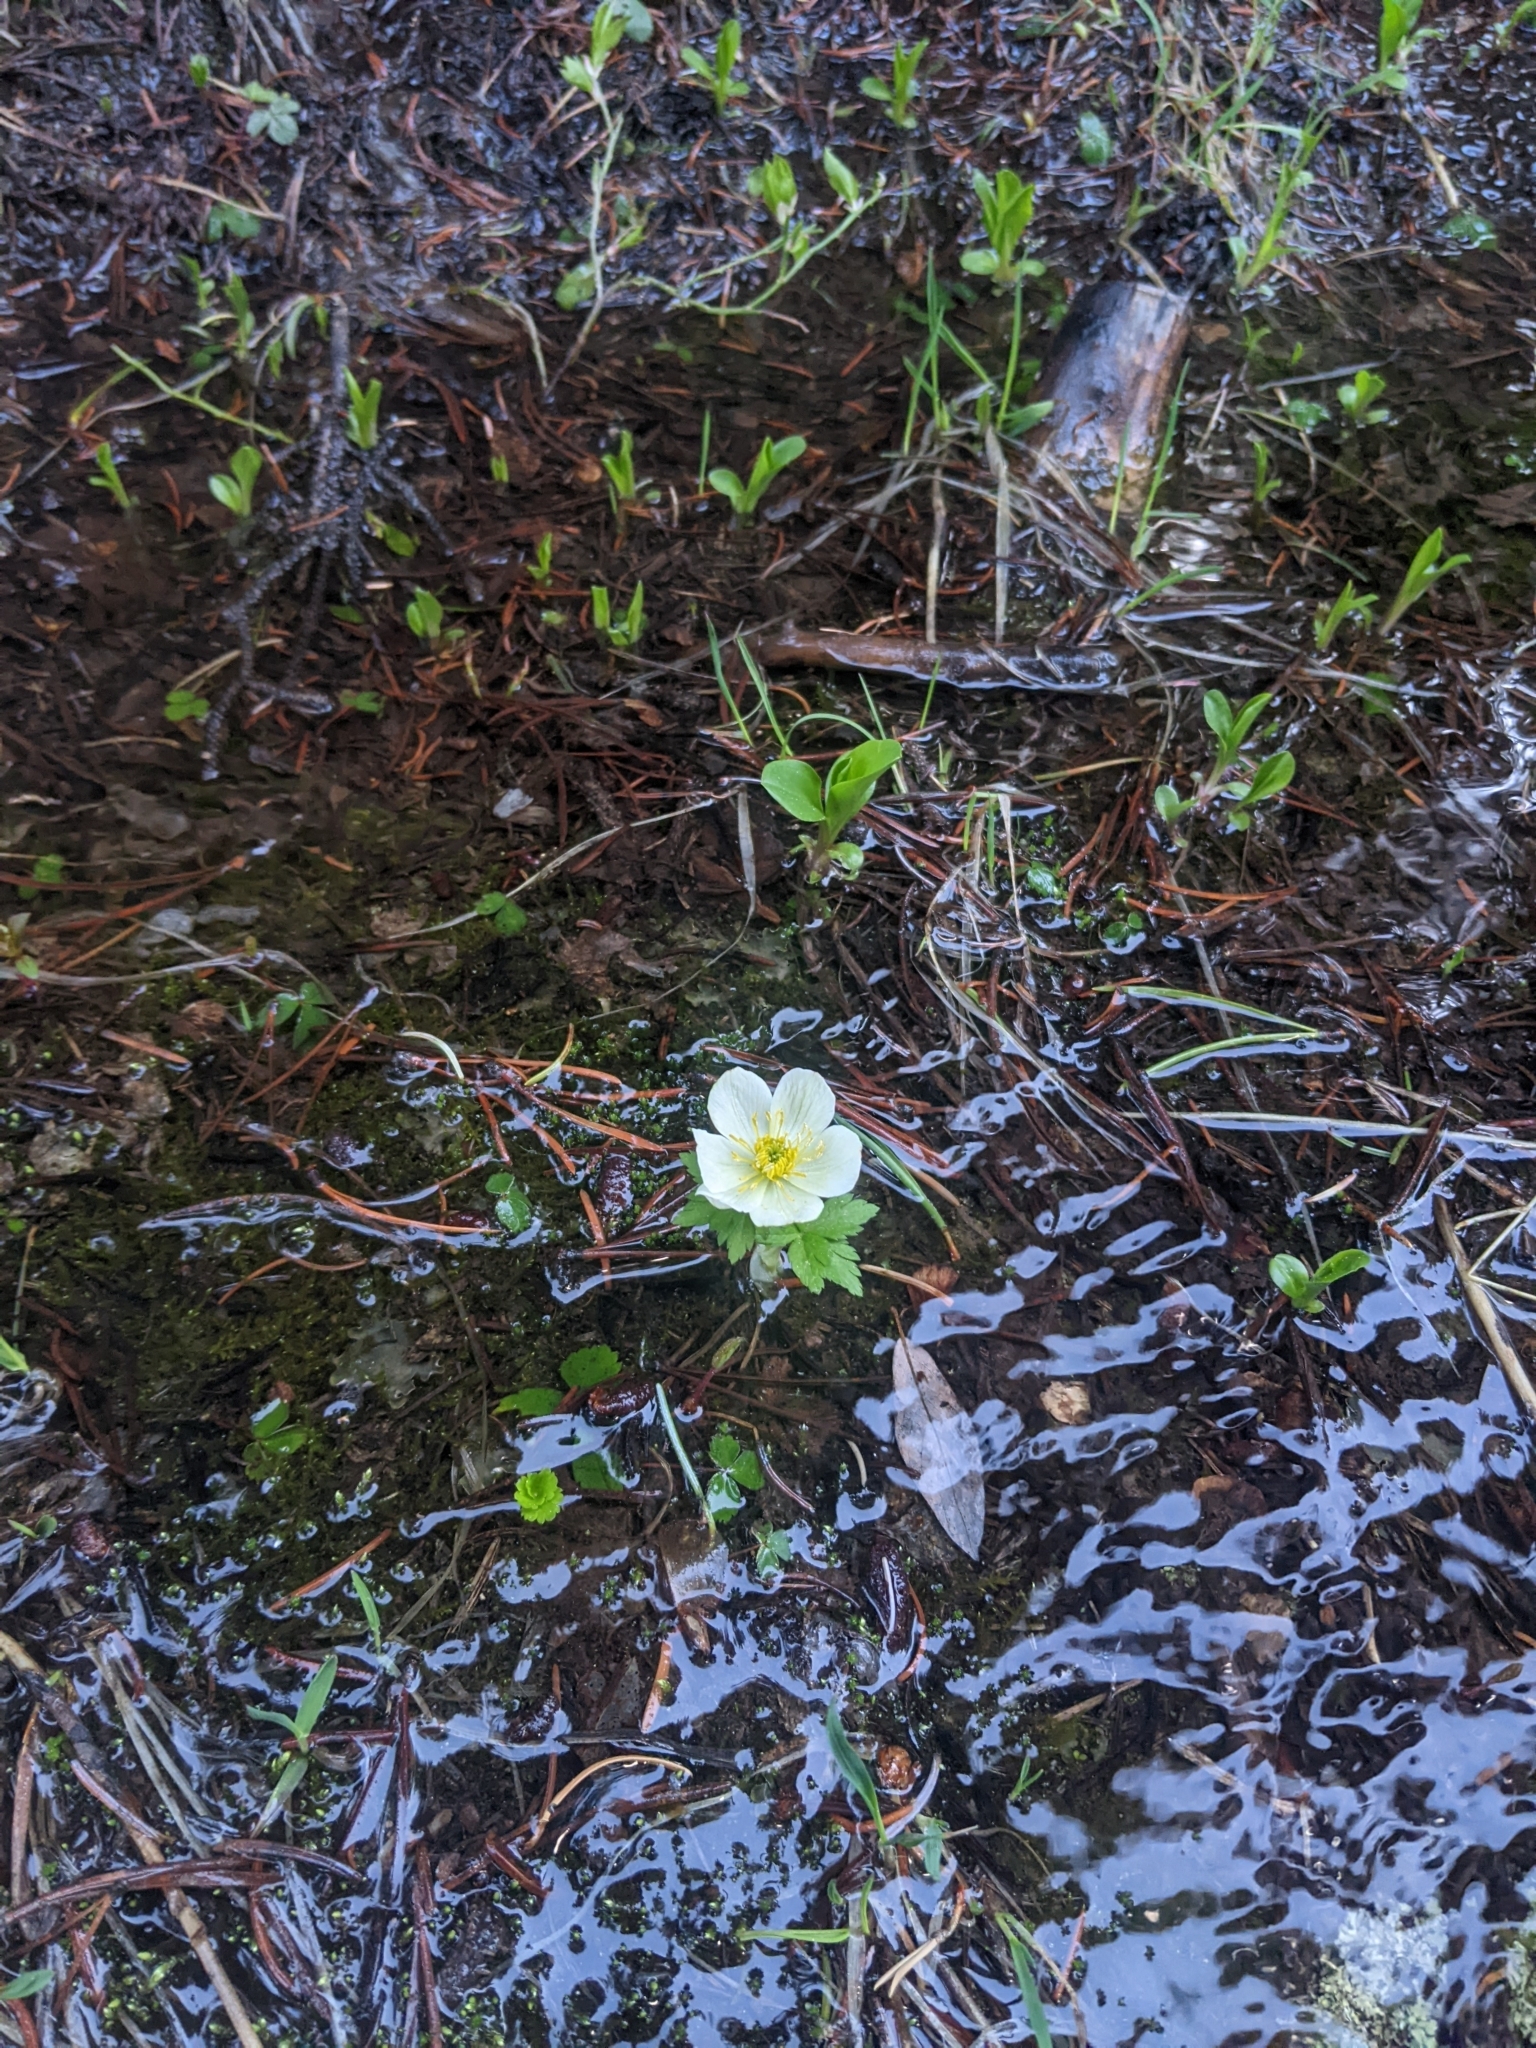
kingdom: Plantae
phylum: Tracheophyta
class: Magnoliopsida
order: Ranunculales
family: Ranunculaceae
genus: Trollius
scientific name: Trollius laxus
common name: American globeflower
